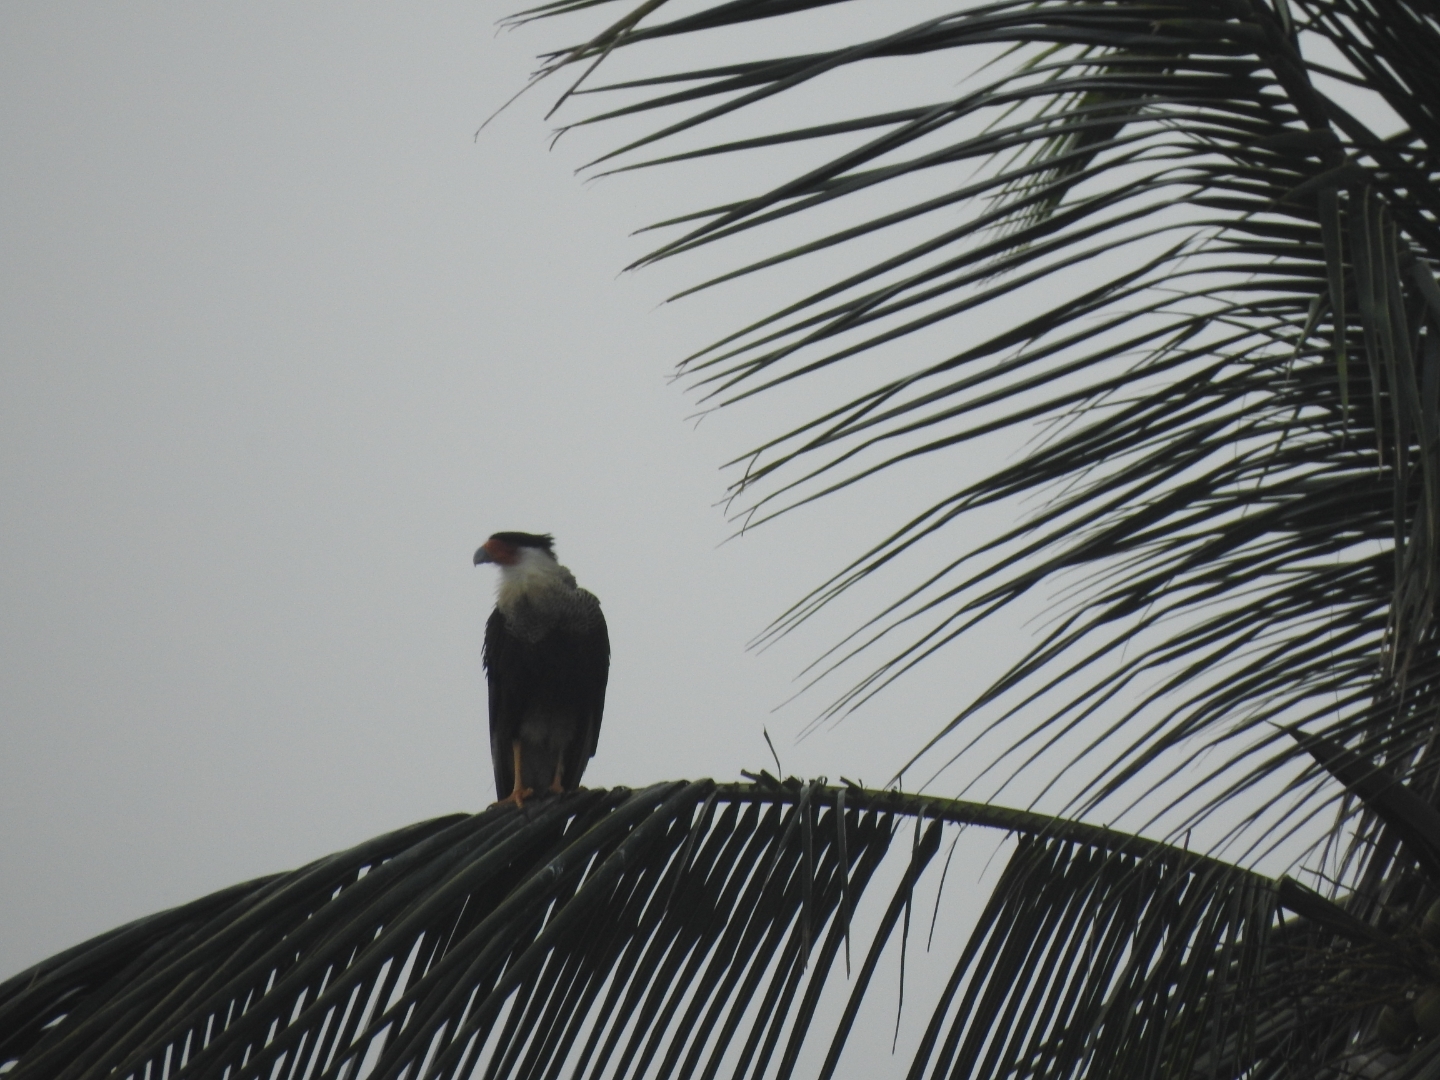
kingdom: Animalia
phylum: Chordata
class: Aves
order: Falconiformes
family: Falconidae
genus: Caracara
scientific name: Caracara plancus
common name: Southern caracara
